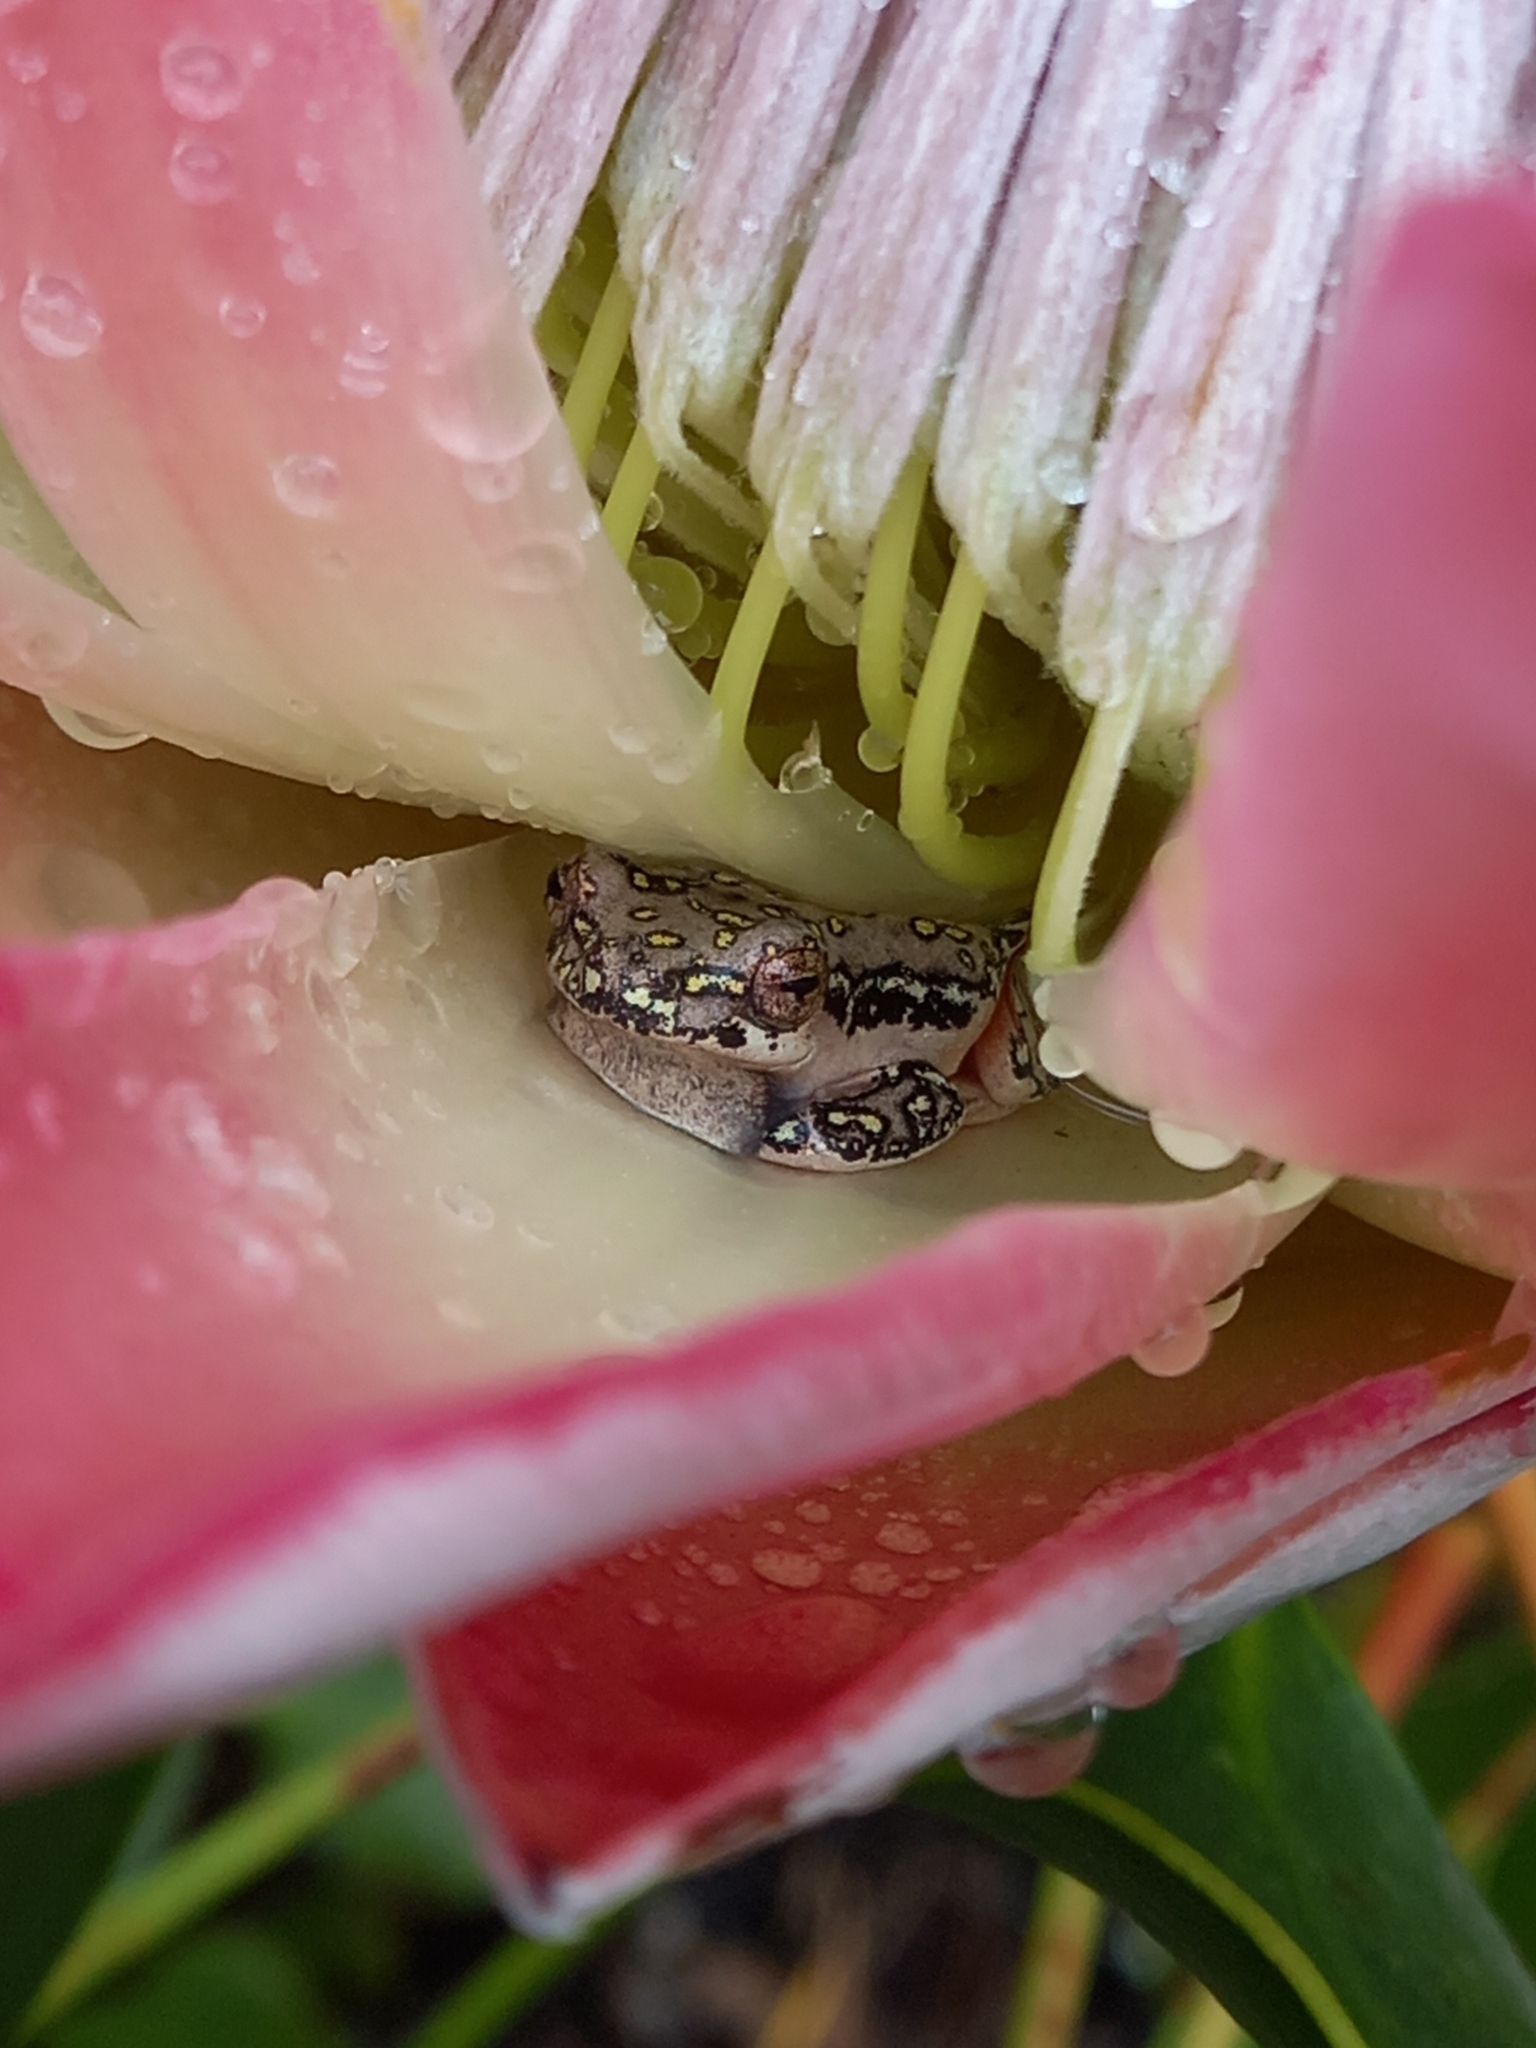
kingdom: Animalia
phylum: Chordata
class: Amphibia
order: Anura
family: Hyperoliidae
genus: Hyperolius
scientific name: Hyperolius marmoratus
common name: Painted reed frog
